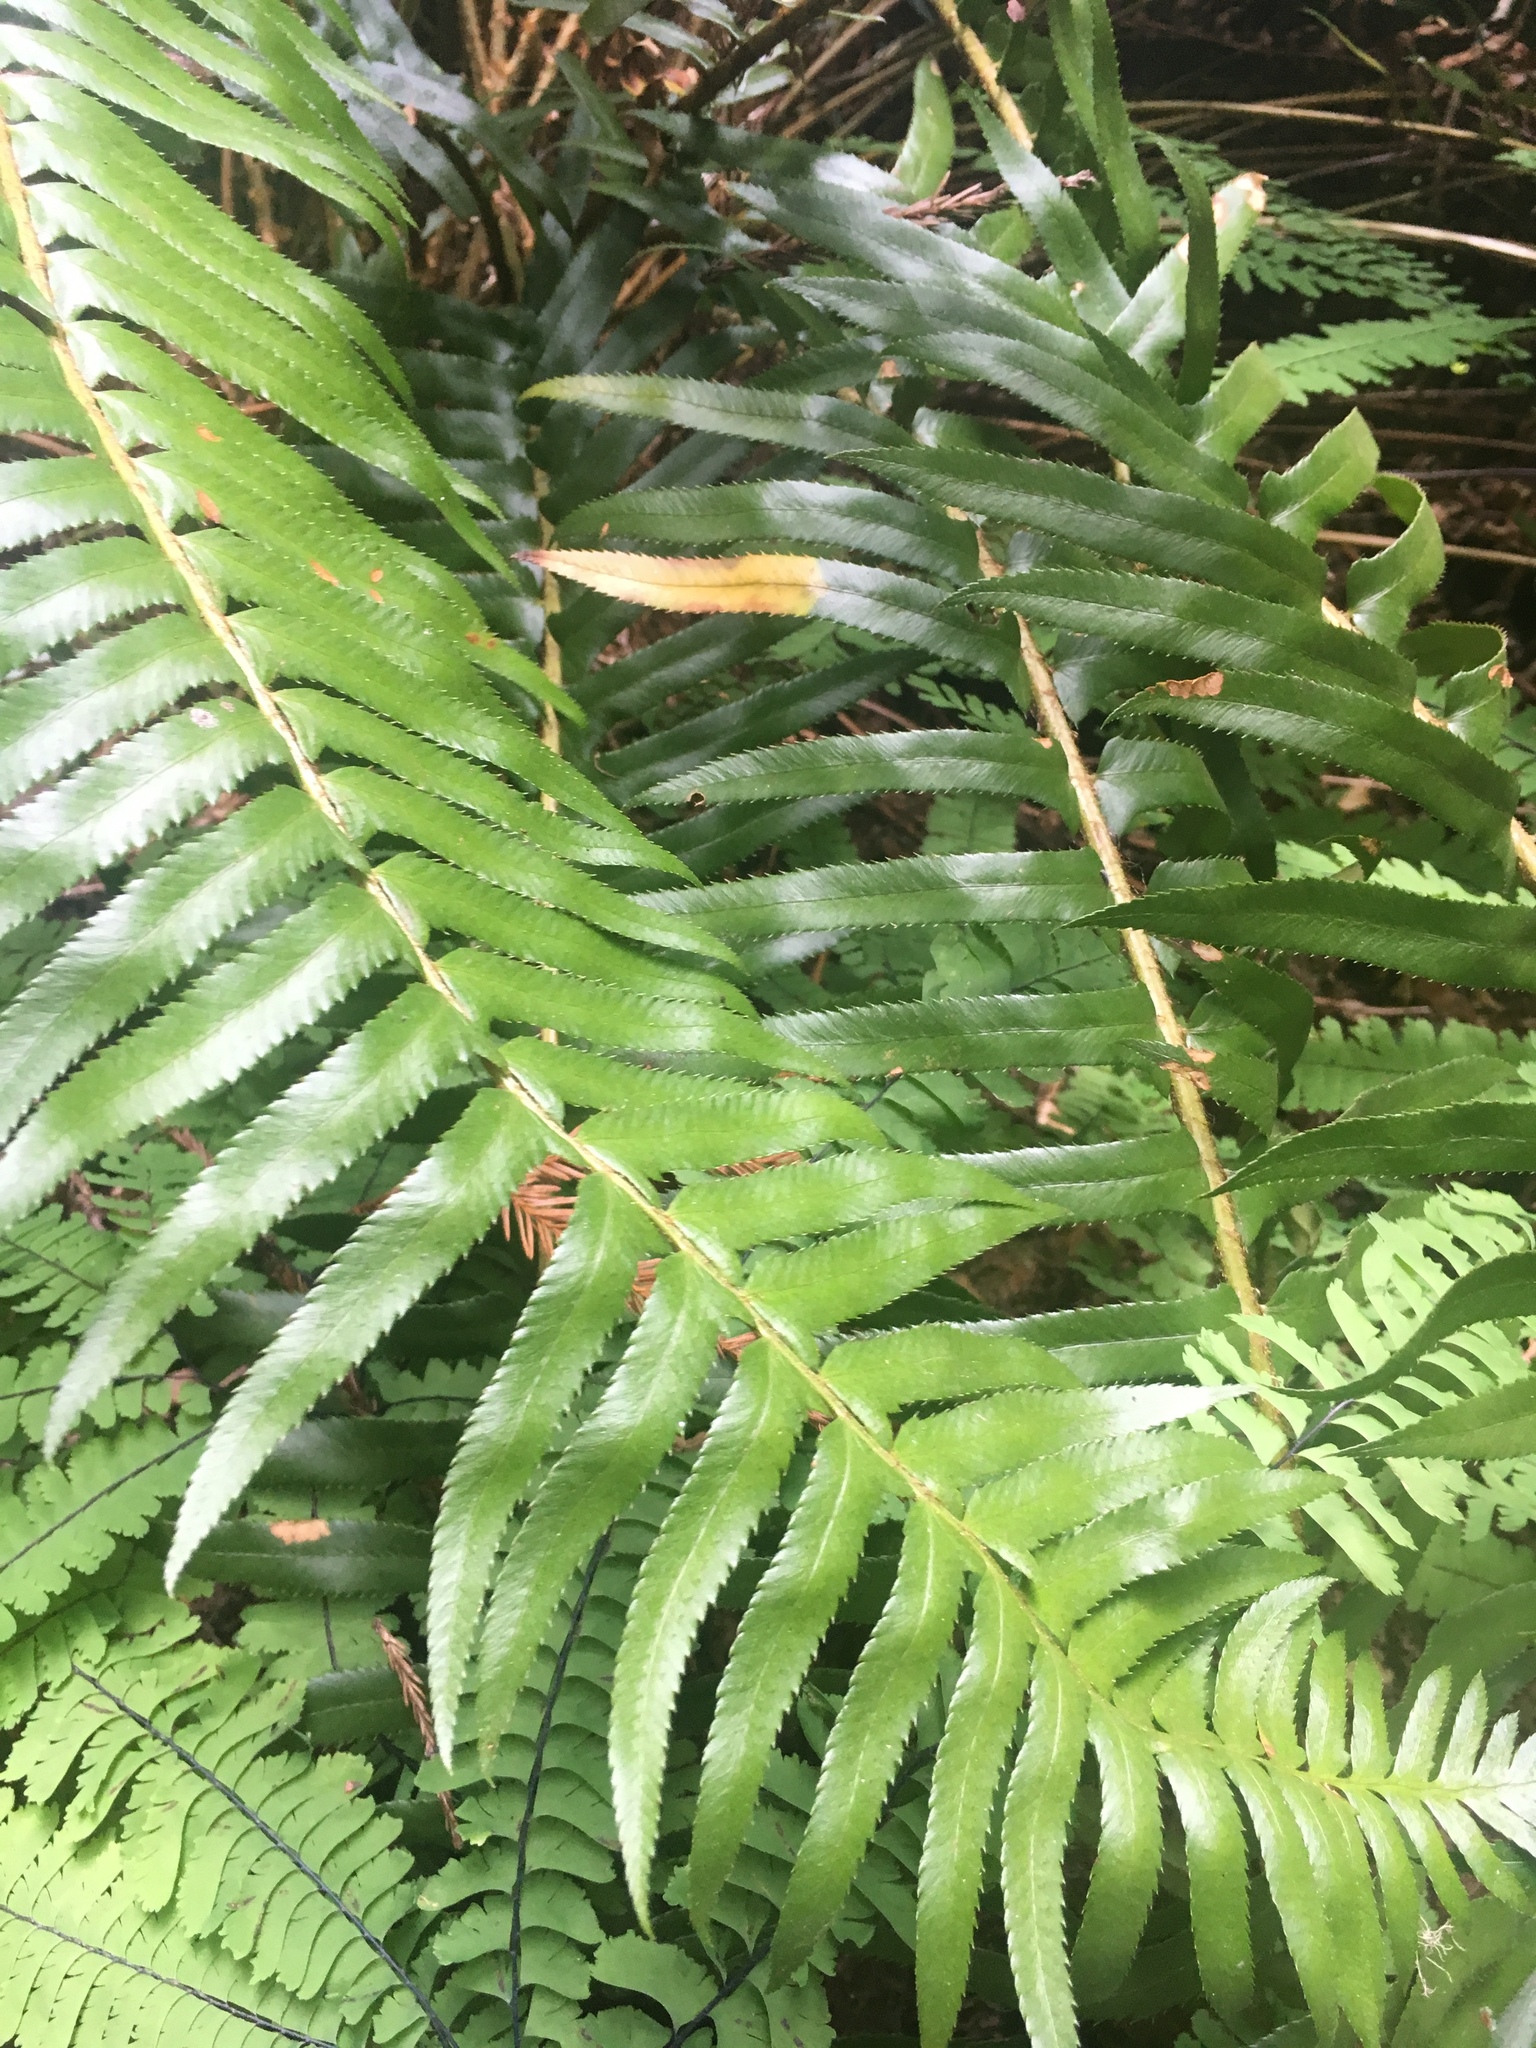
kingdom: Plantae
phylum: Tracheophyta
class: Polypodiopsida
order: Polypodiales
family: Dryopteridaceae
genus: Polystichum
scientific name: Polystichum munitum
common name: Western sword-fern
